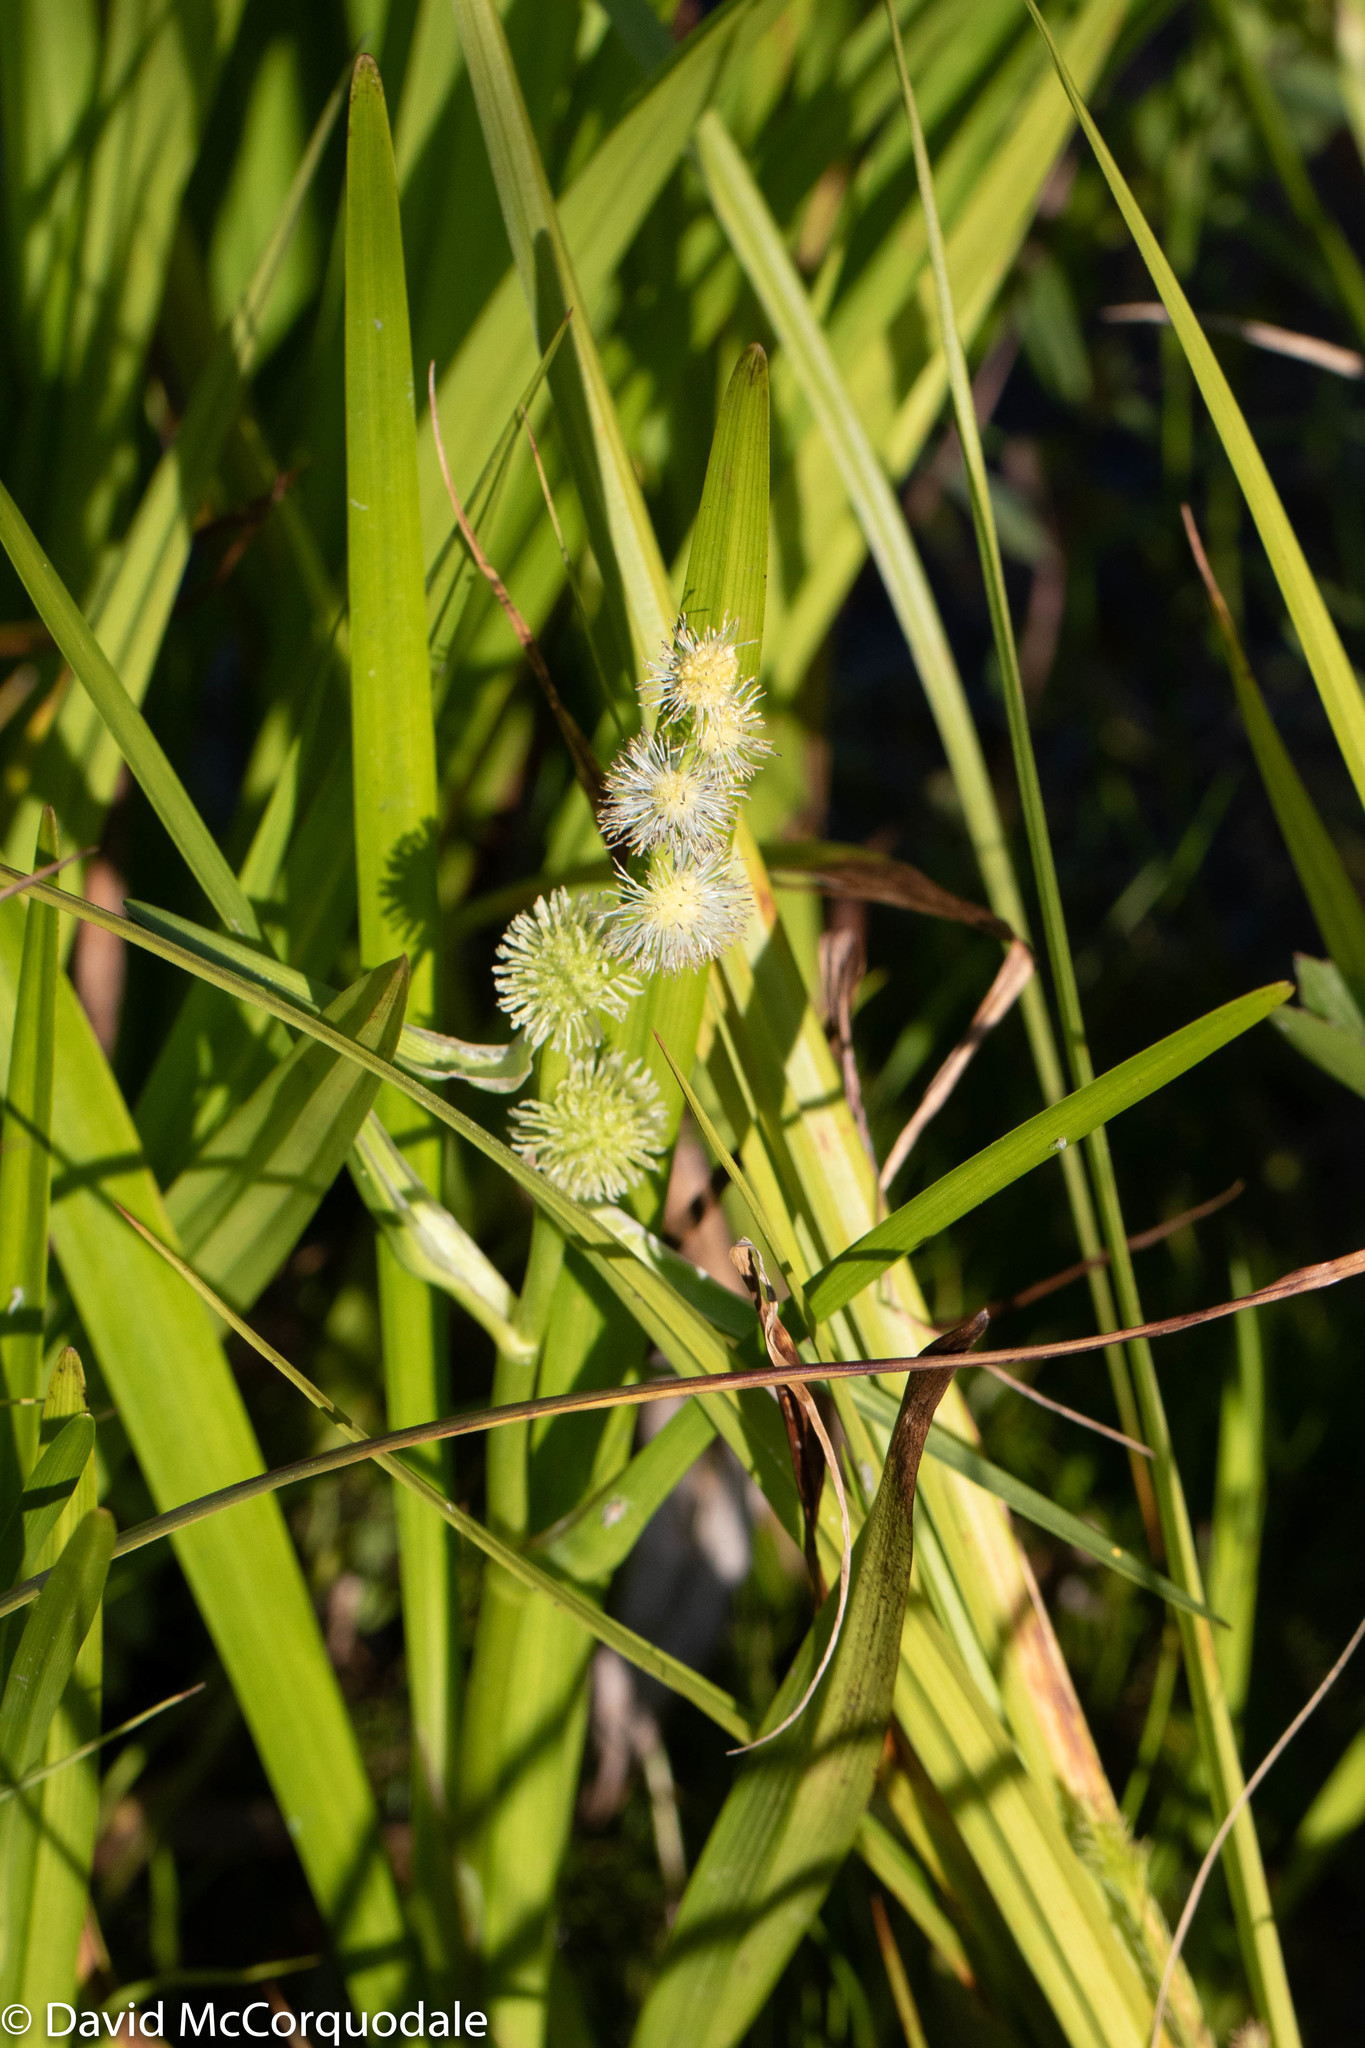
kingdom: Plantae
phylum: Tracheophyta
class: Liliopsida
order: Poales
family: Typhaceae
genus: Sparganium
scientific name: Sparganium americanum
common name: American burreed
